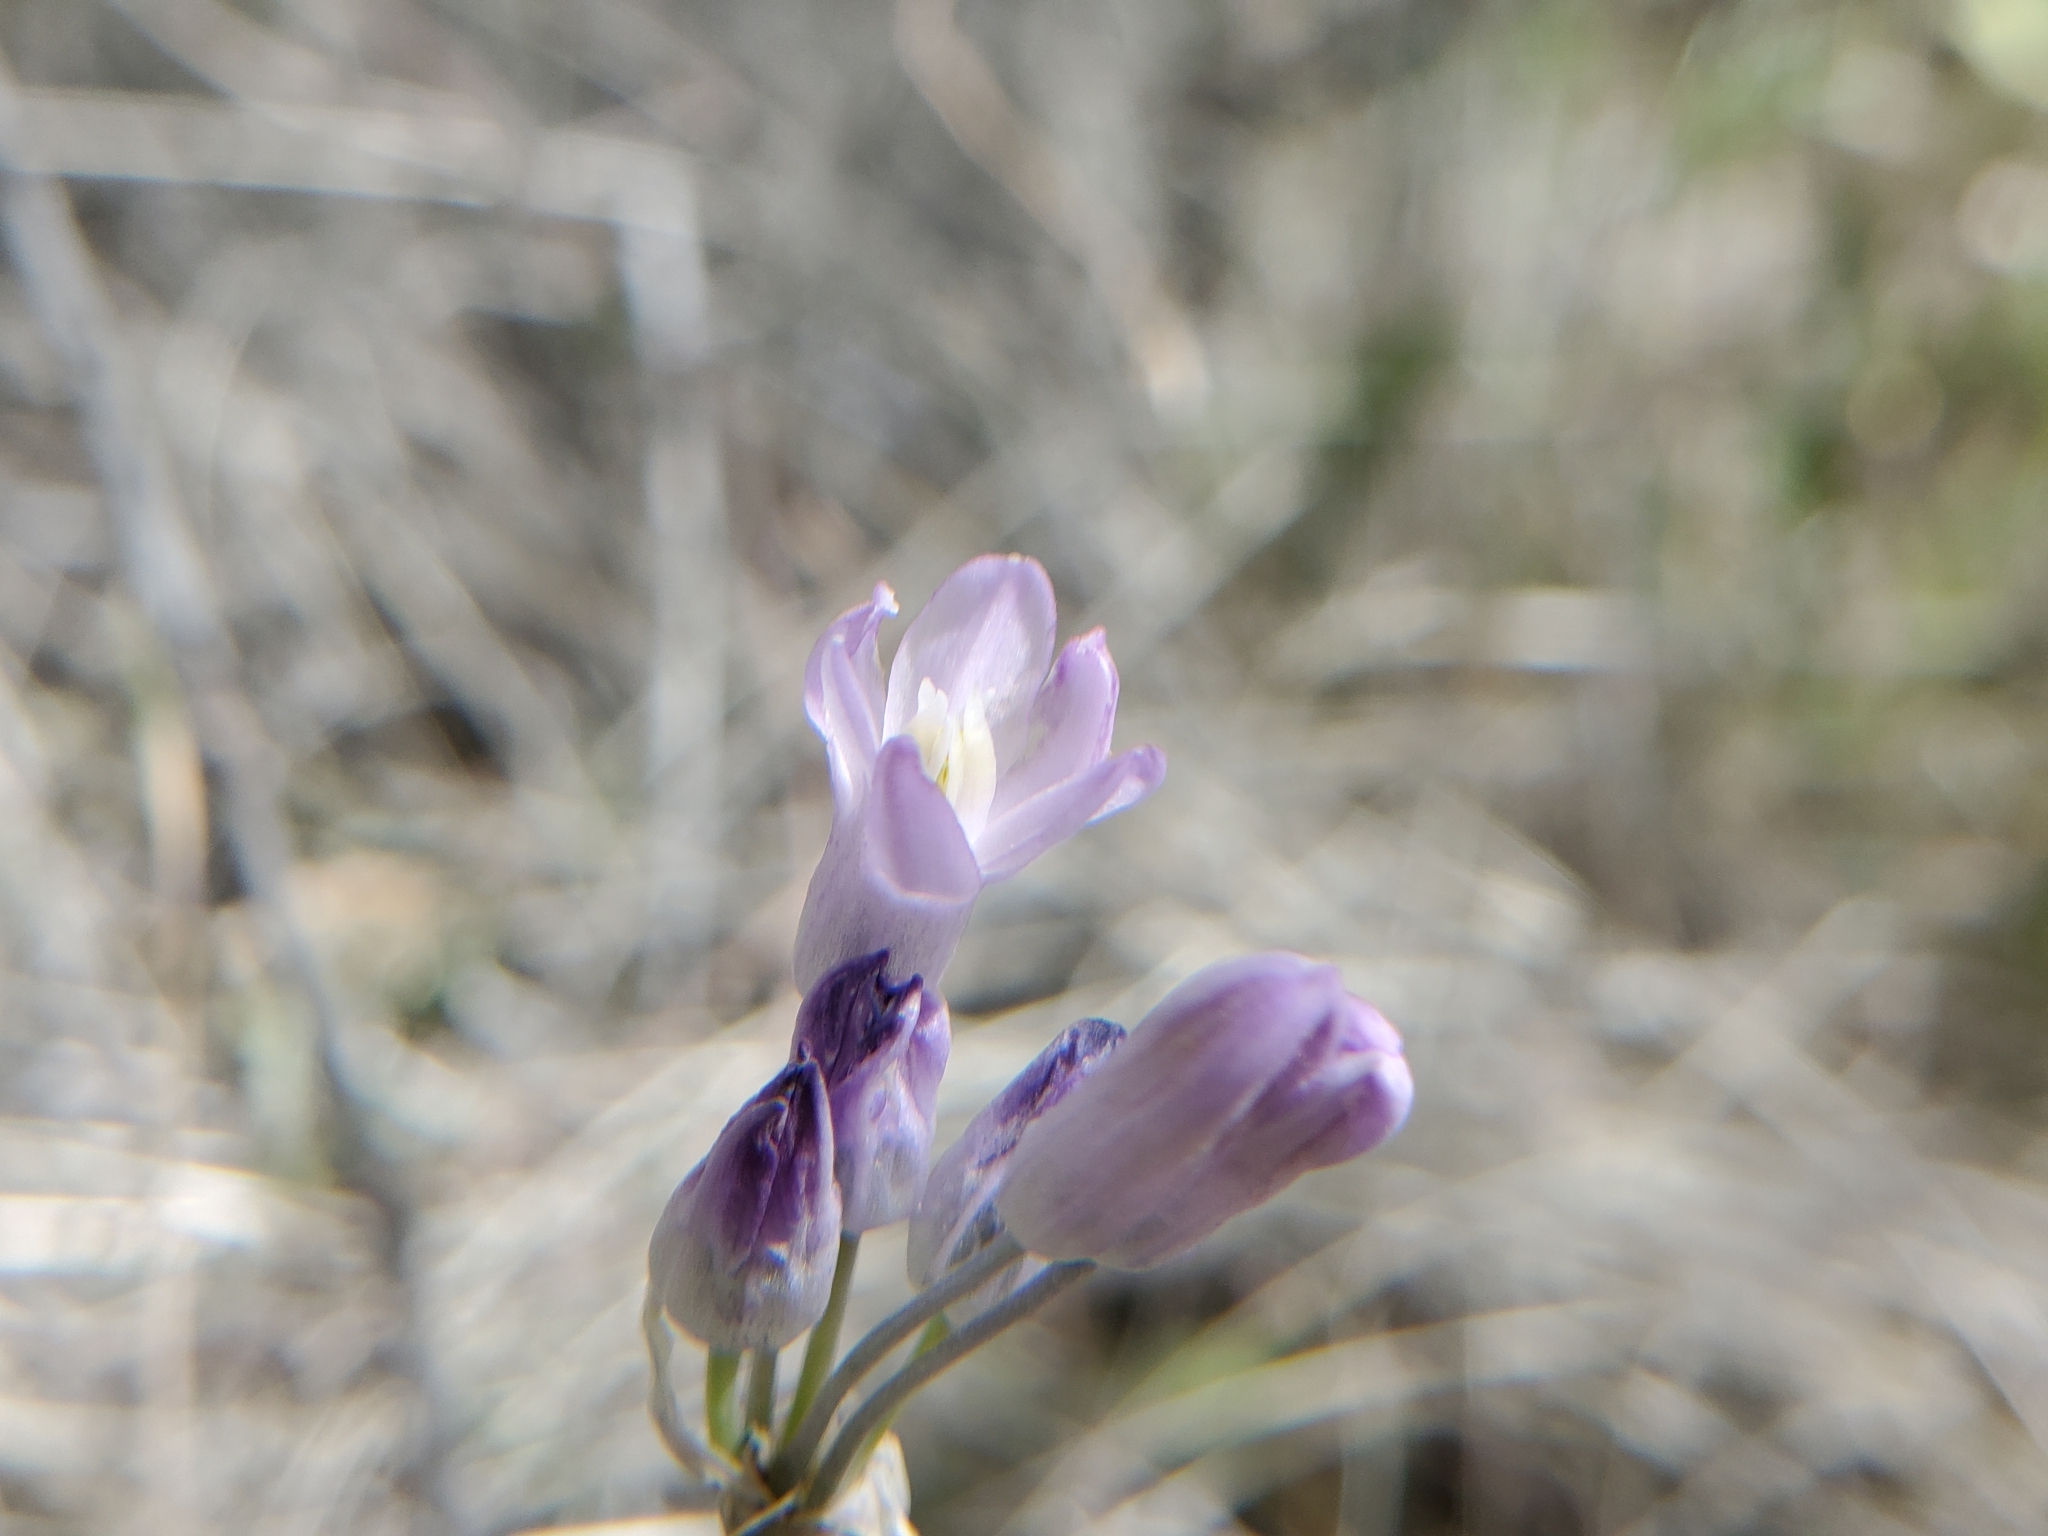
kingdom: Plantae
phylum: Tracheophyta
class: Liliopsida
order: Asparagales
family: Asparagaceae
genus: Dipterostemon
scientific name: Dipterostemon capitatus
